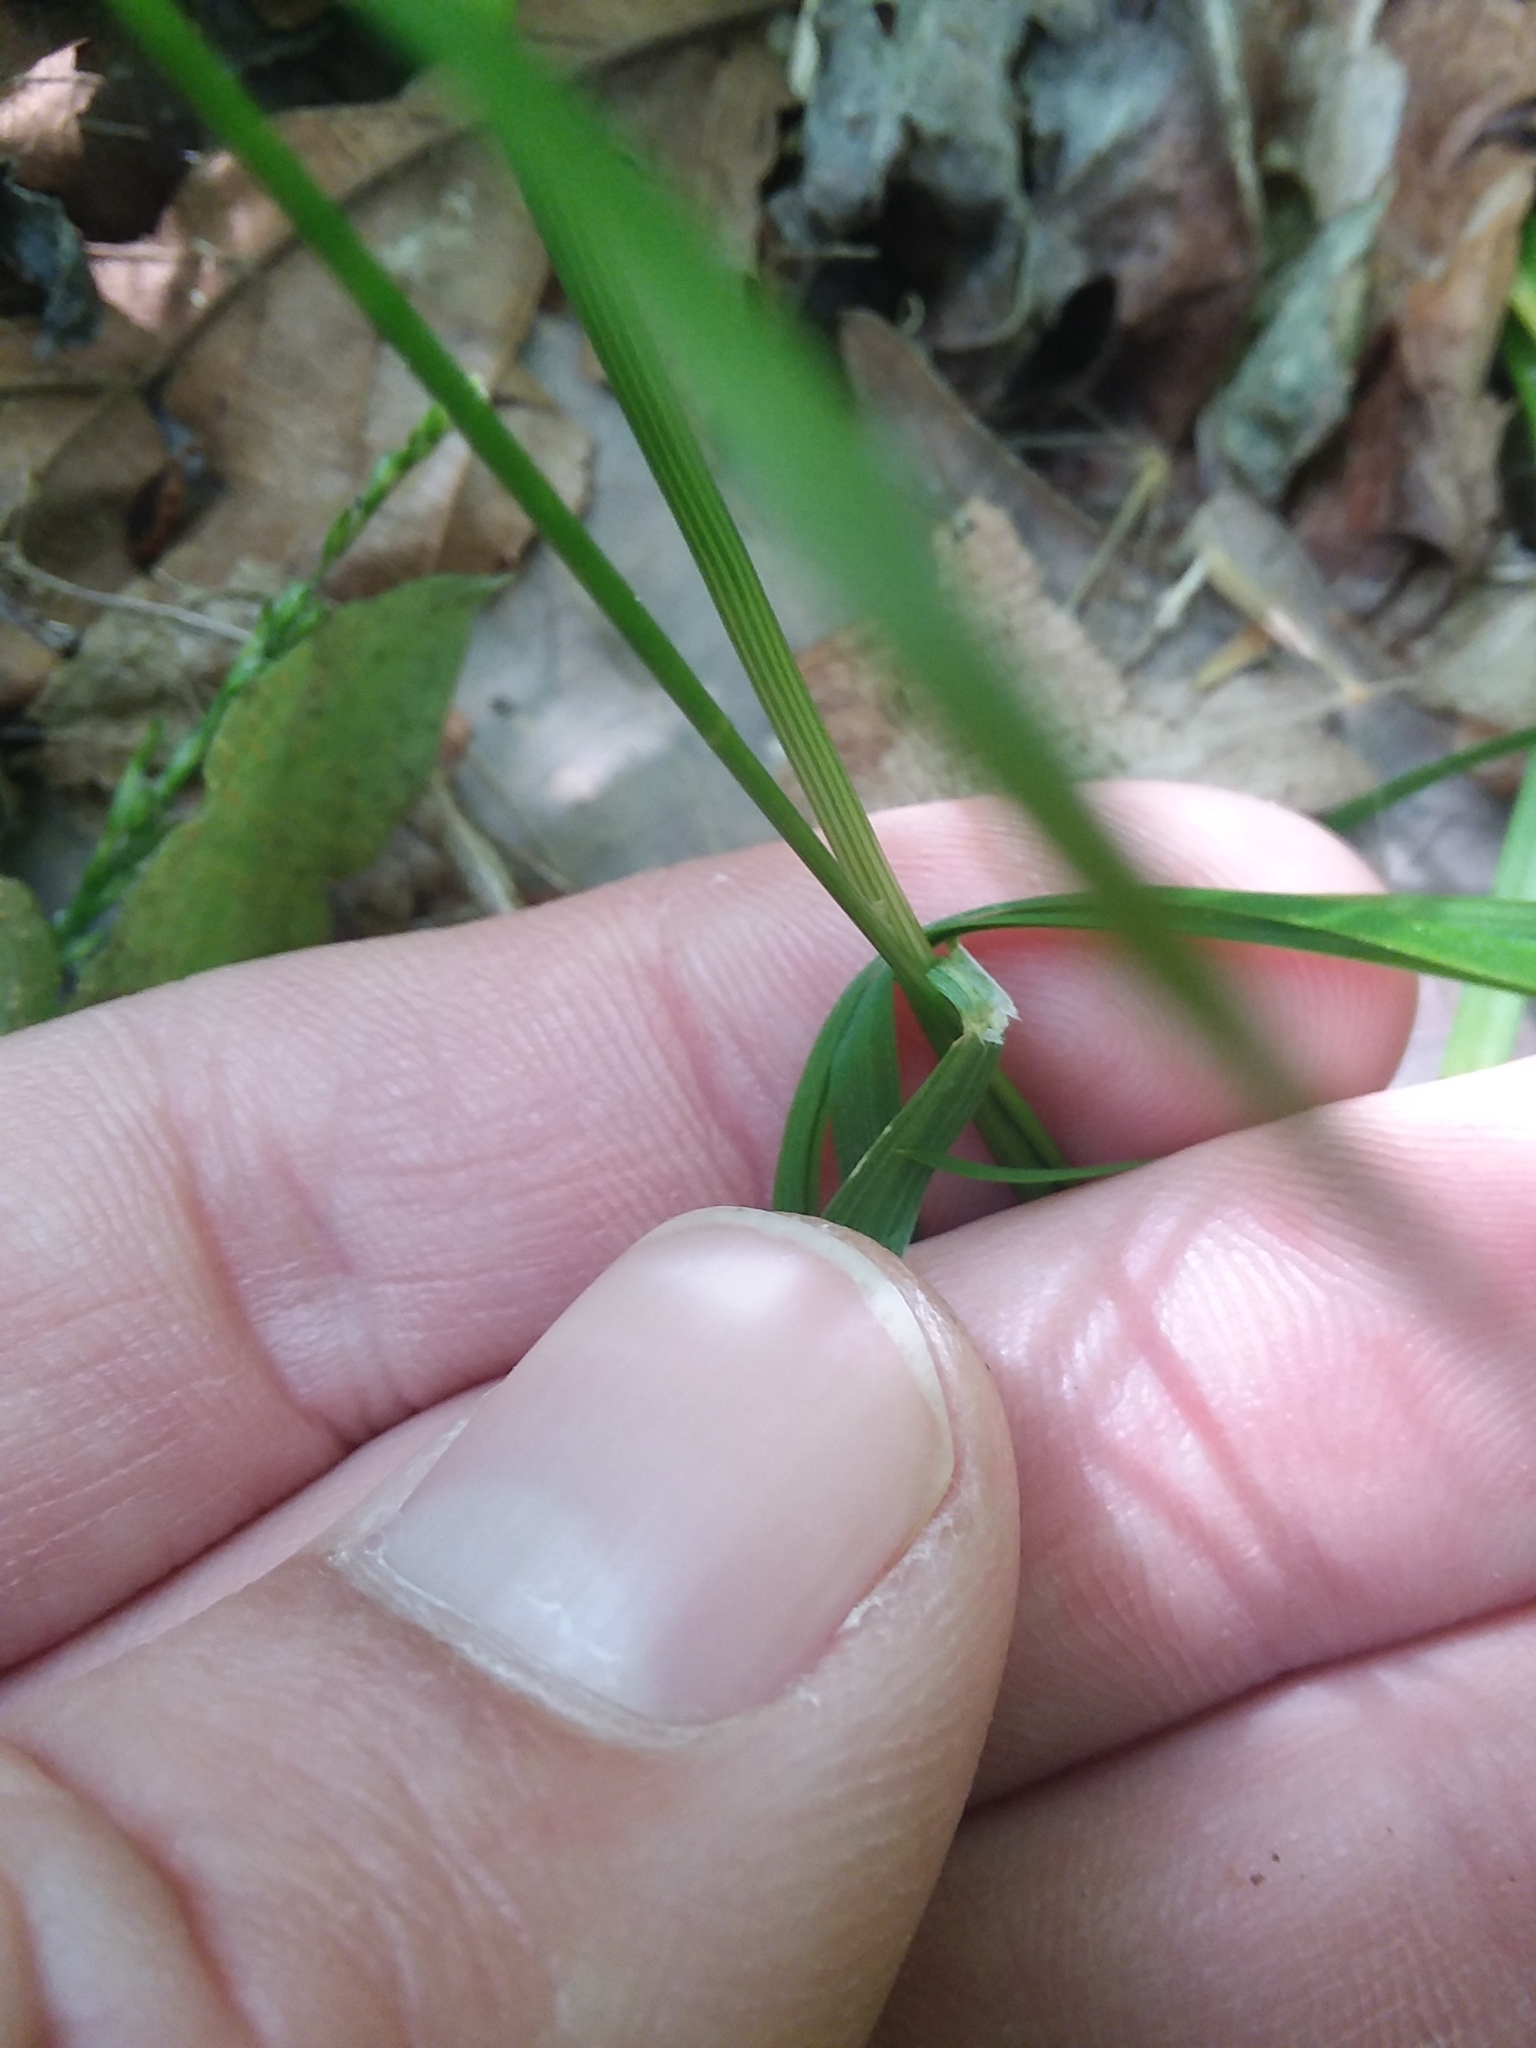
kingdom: Plantae
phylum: Tracheophyta
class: Liliopsida
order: Poales
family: Poaceae
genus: Sphenopholis
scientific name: Sphenopholis nitida
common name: Shiny wedgegrass
